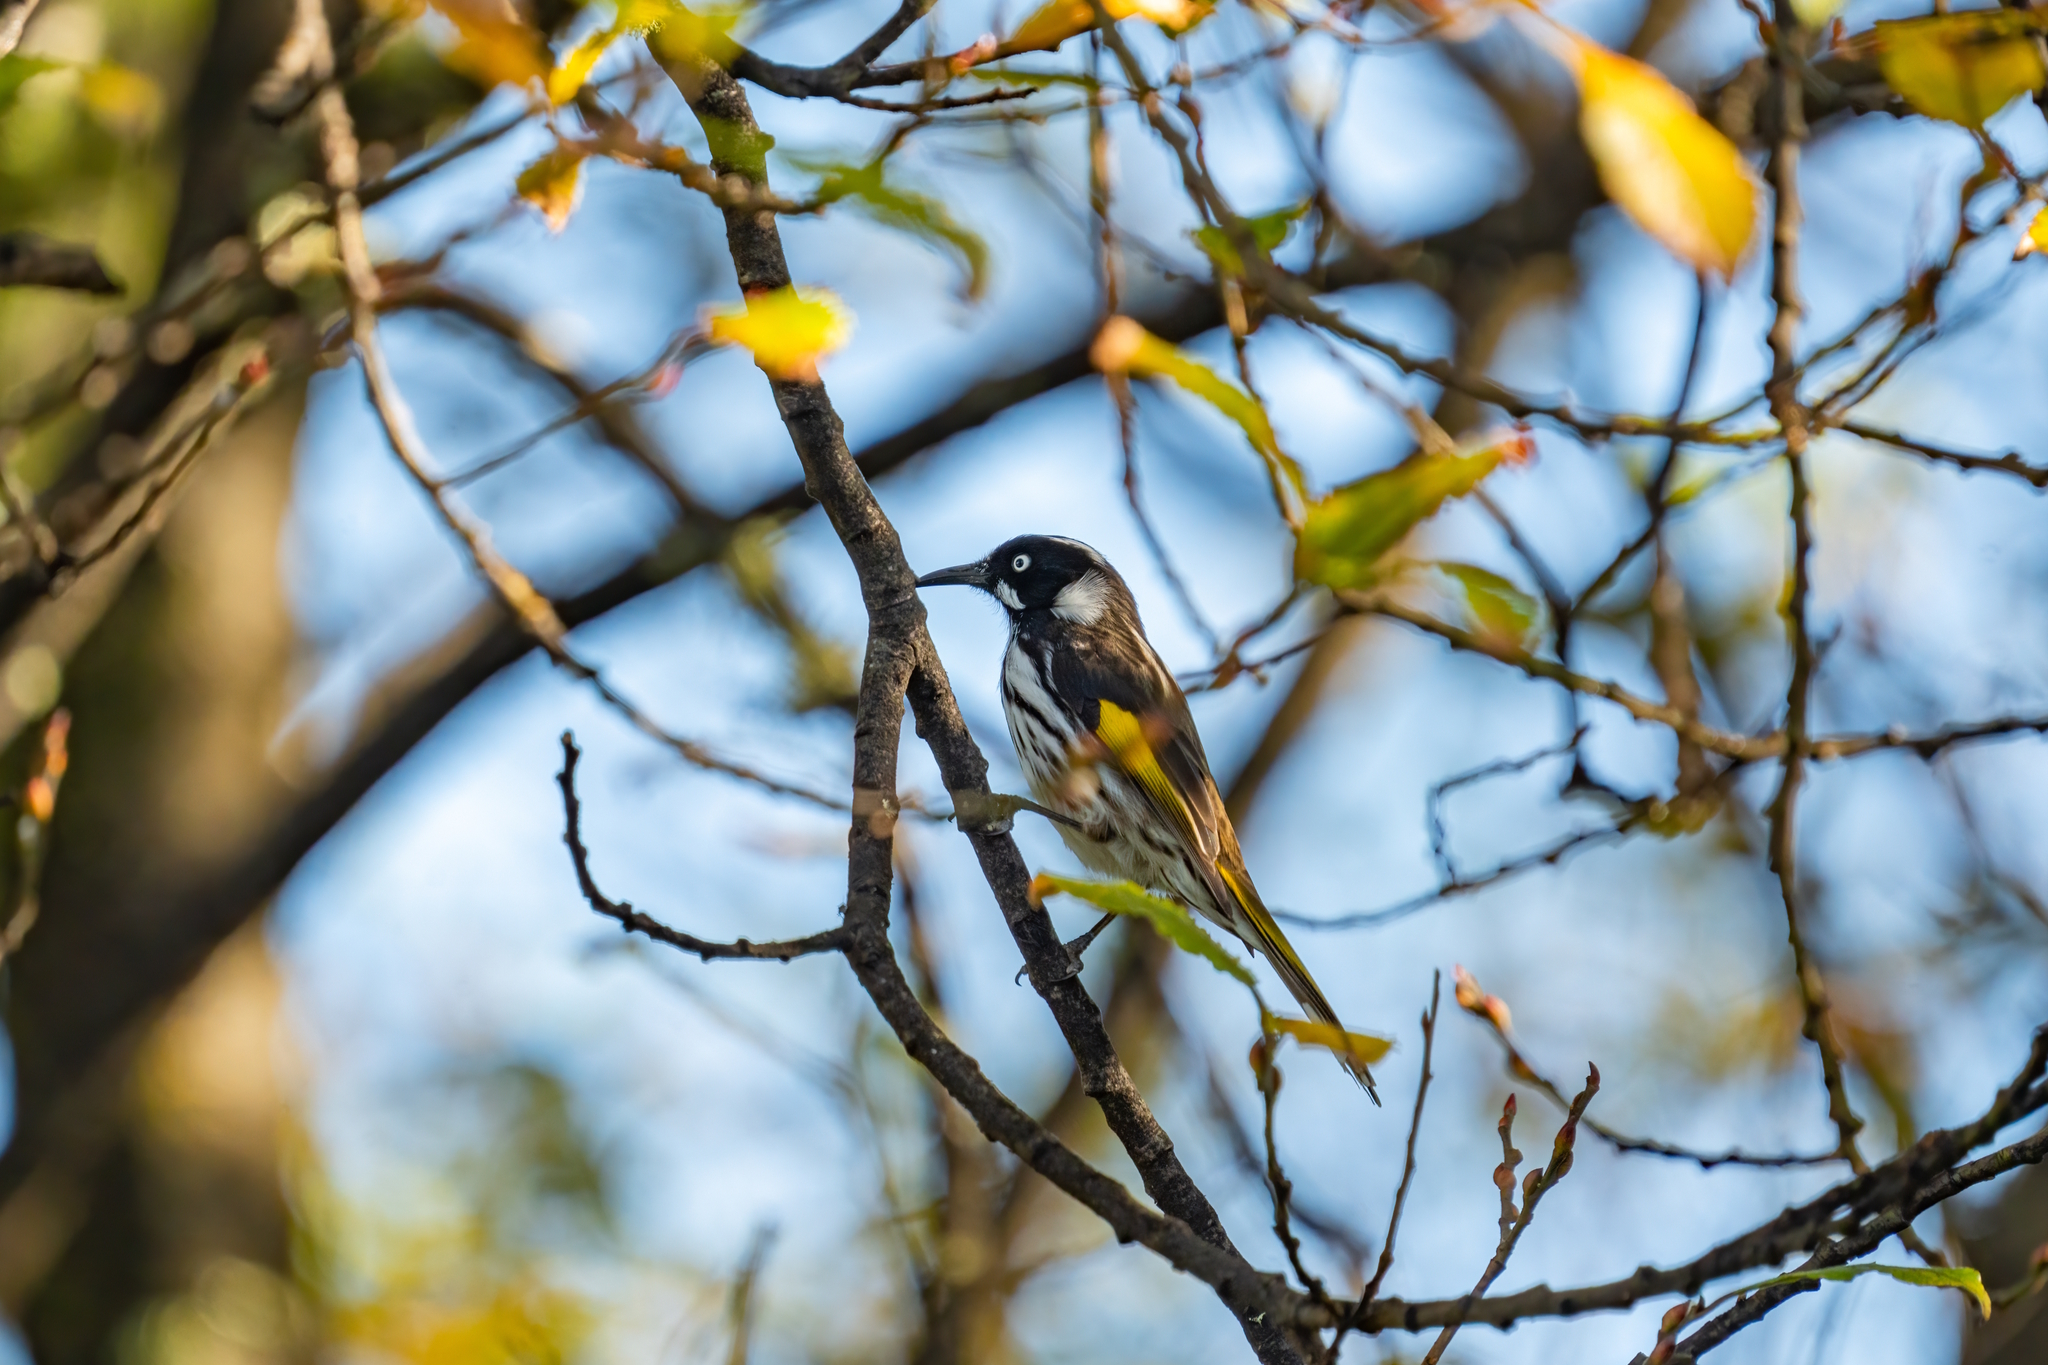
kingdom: Animalia
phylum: Chordata
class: Aves
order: Passeriformes
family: Meliphagidae
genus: Phylidonyris
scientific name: Phylidonyris novaehollandiae
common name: New holland honeyeater
